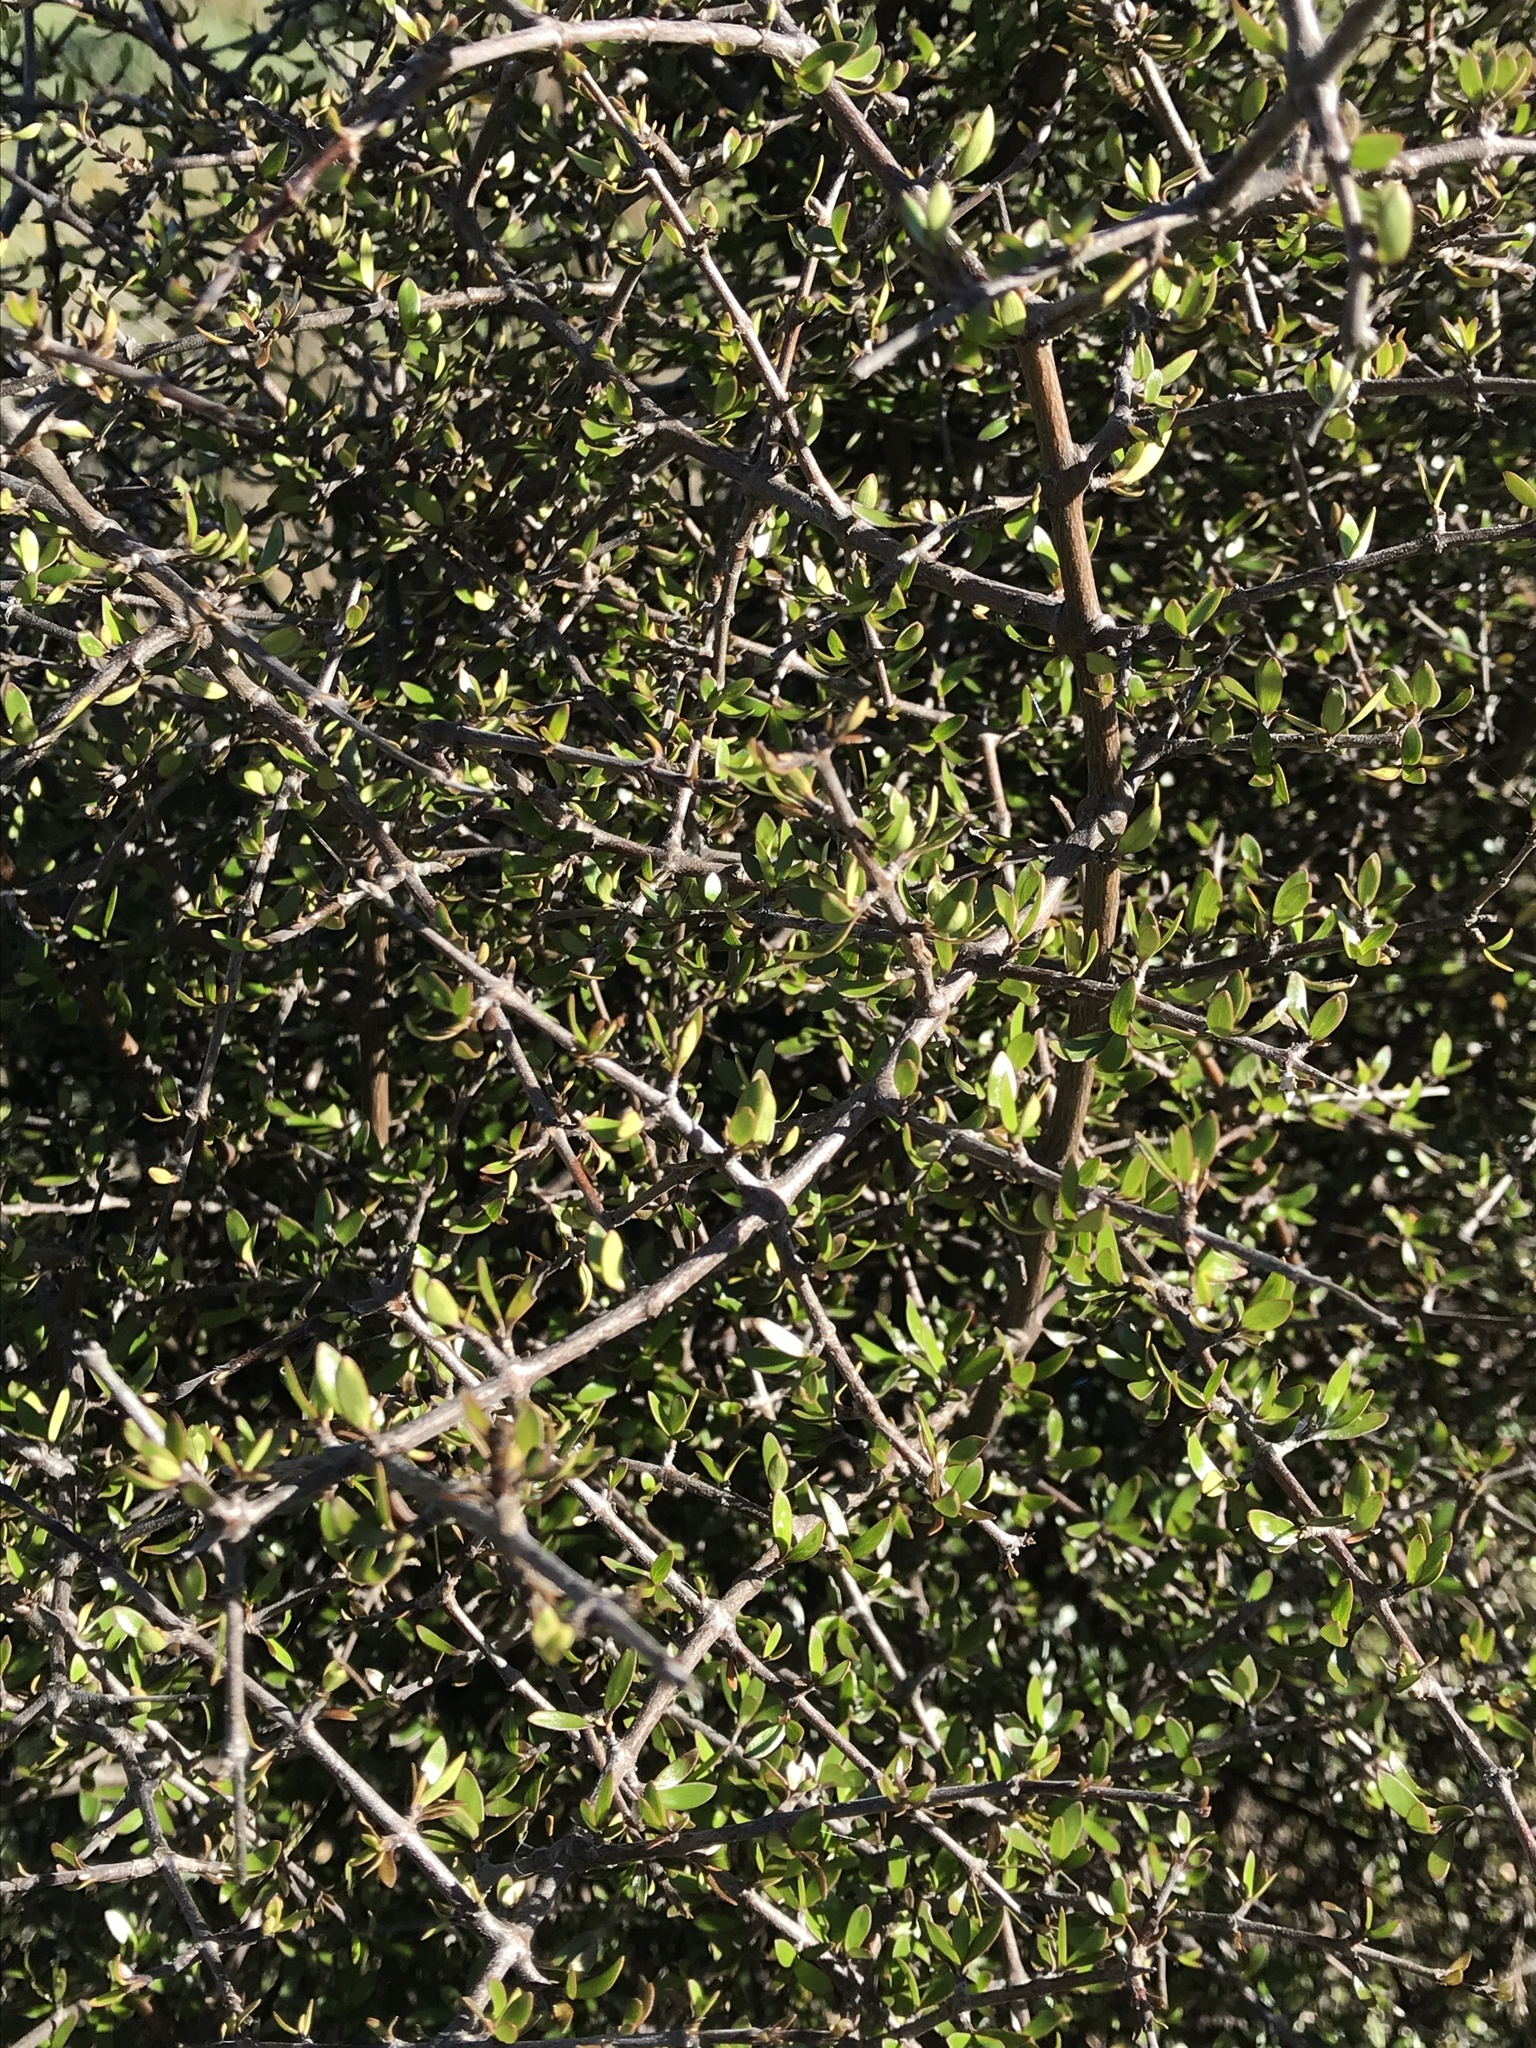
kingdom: Plantae
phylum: Tracheophyta
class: Magnoliopsida
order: Gentianales
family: Rubiaceae
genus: Coprosma
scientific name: Coprosma propinqua
